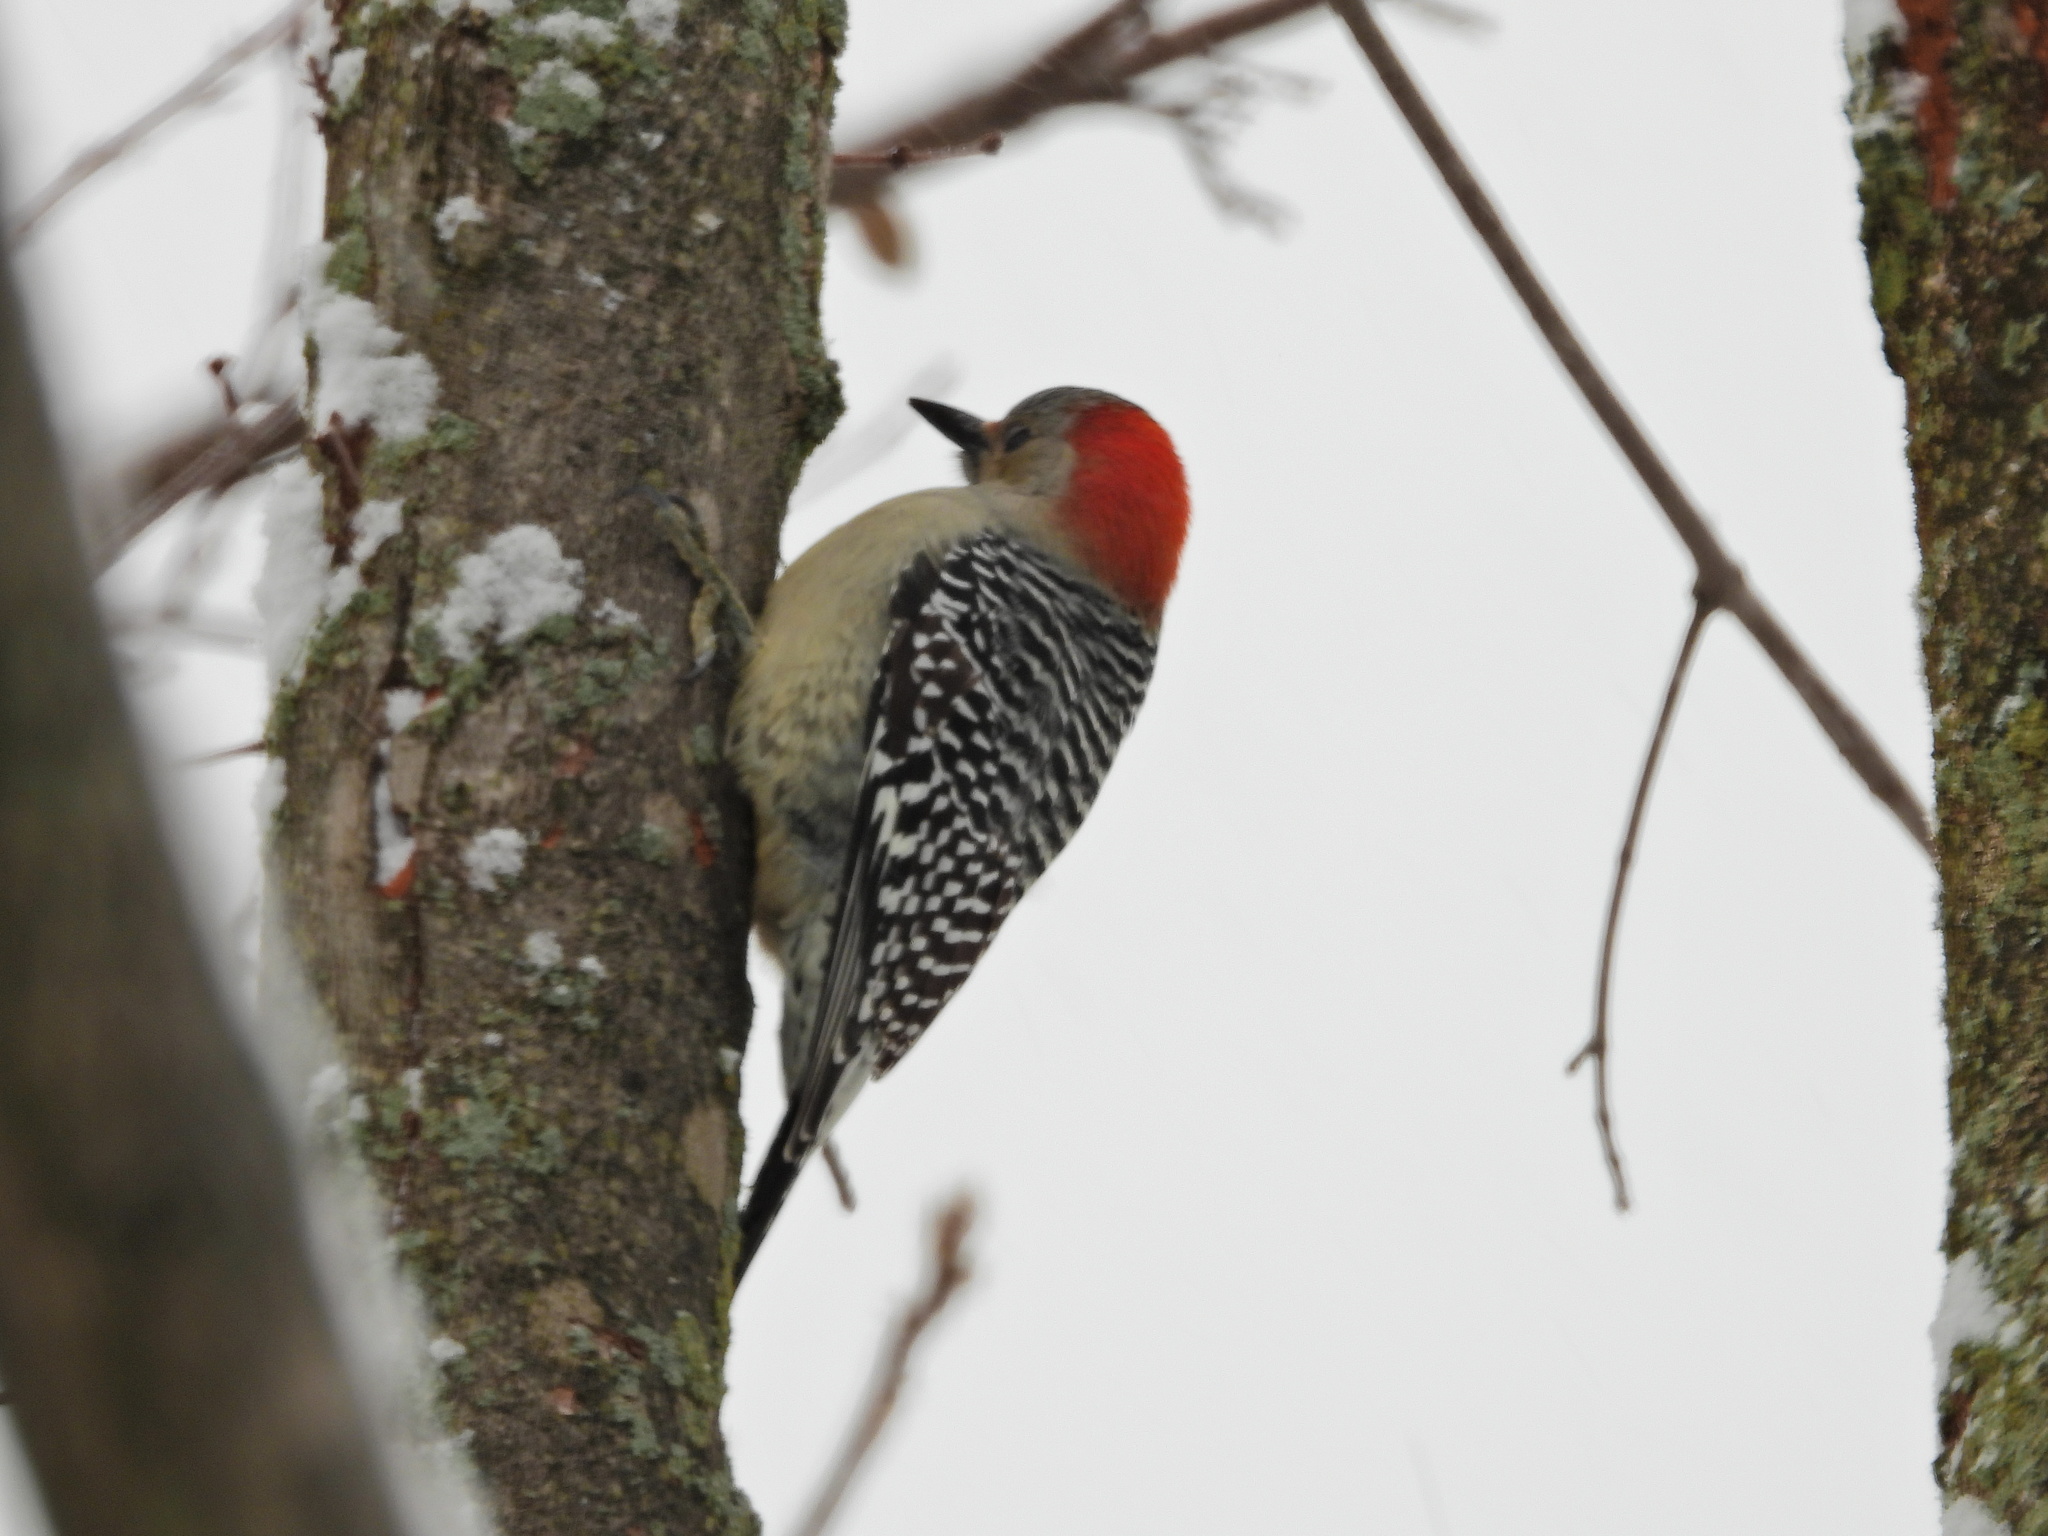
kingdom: Animalia
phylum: Chordata
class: Aves
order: Piciformes
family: Picidae
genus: Melanerpes
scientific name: Melanerpes carolinus
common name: Red-bellied woodpecker
